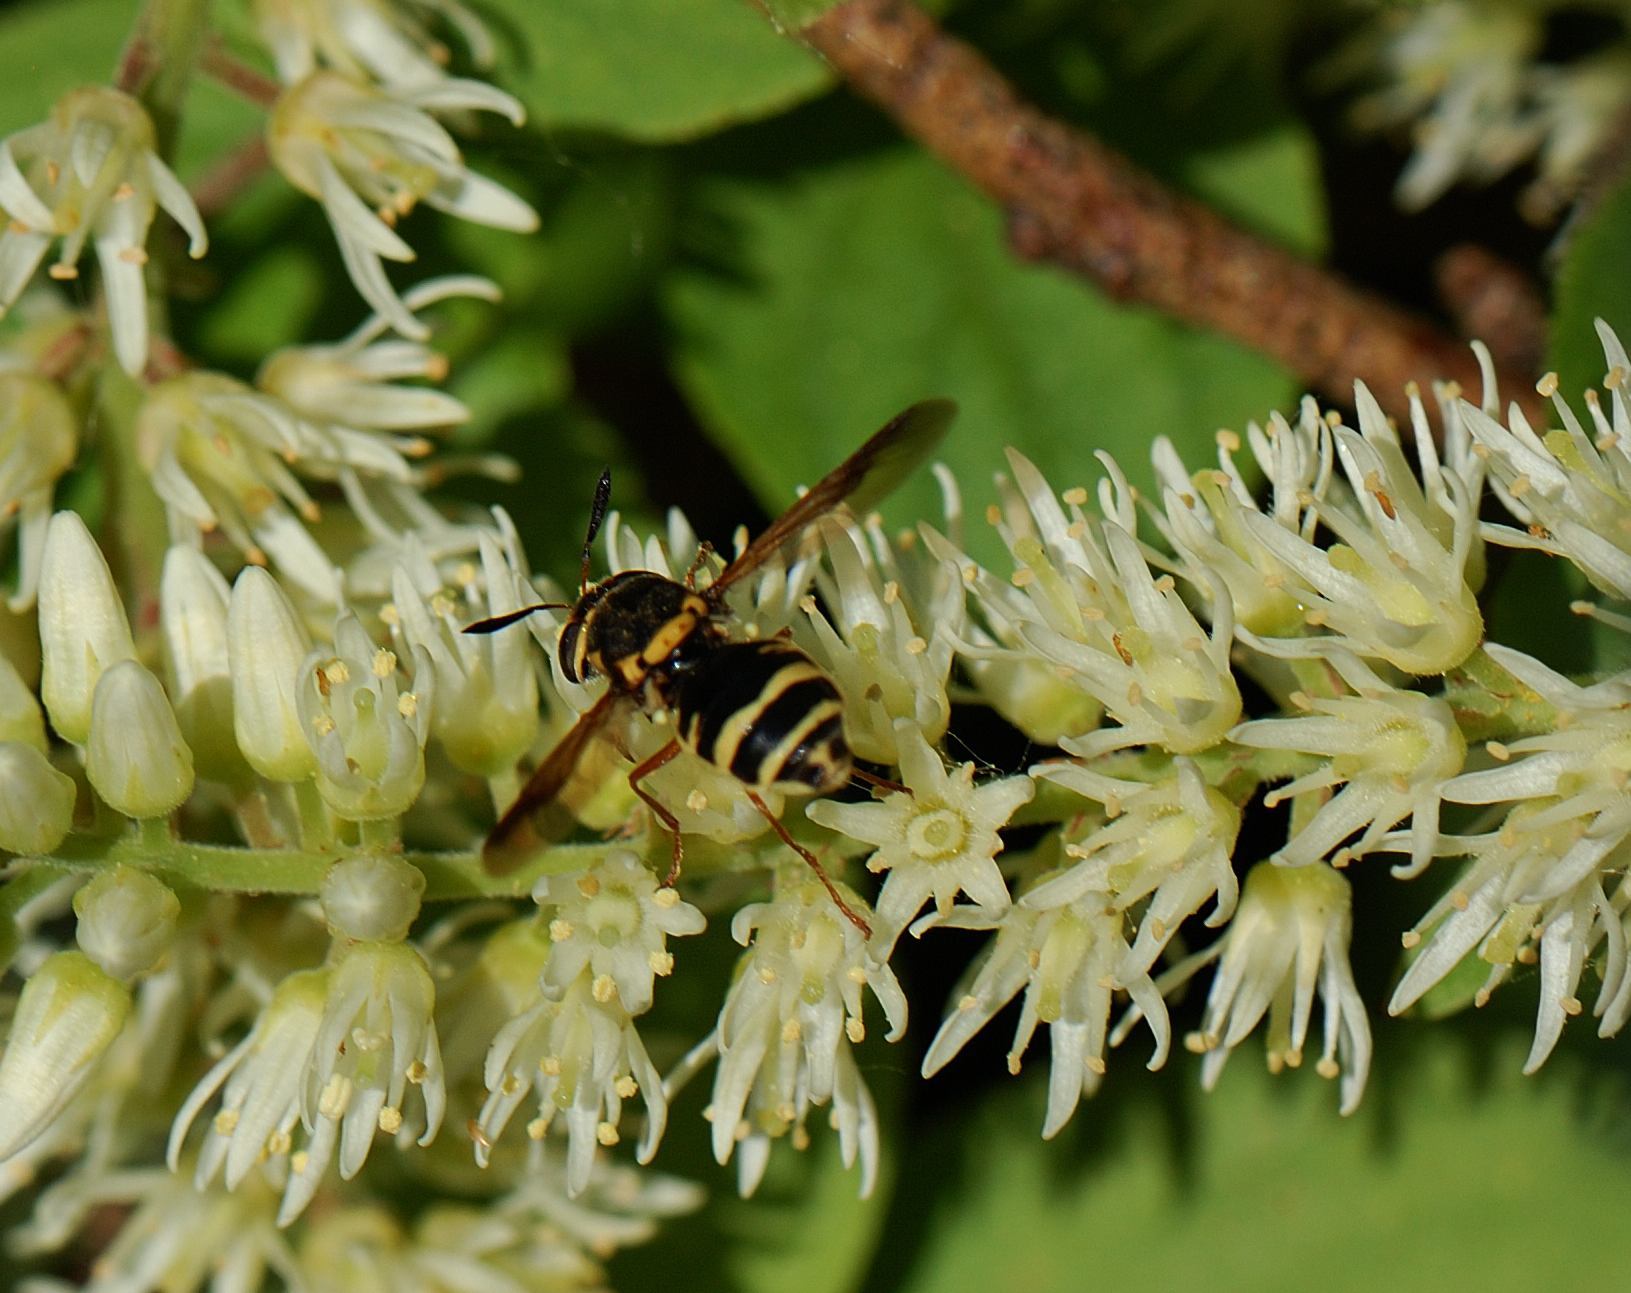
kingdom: Animalia
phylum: Arthropoda
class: Insecta
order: Diptera
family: Stratiomyidae
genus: Hoplitimyia
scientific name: Hoplitimyia constans
